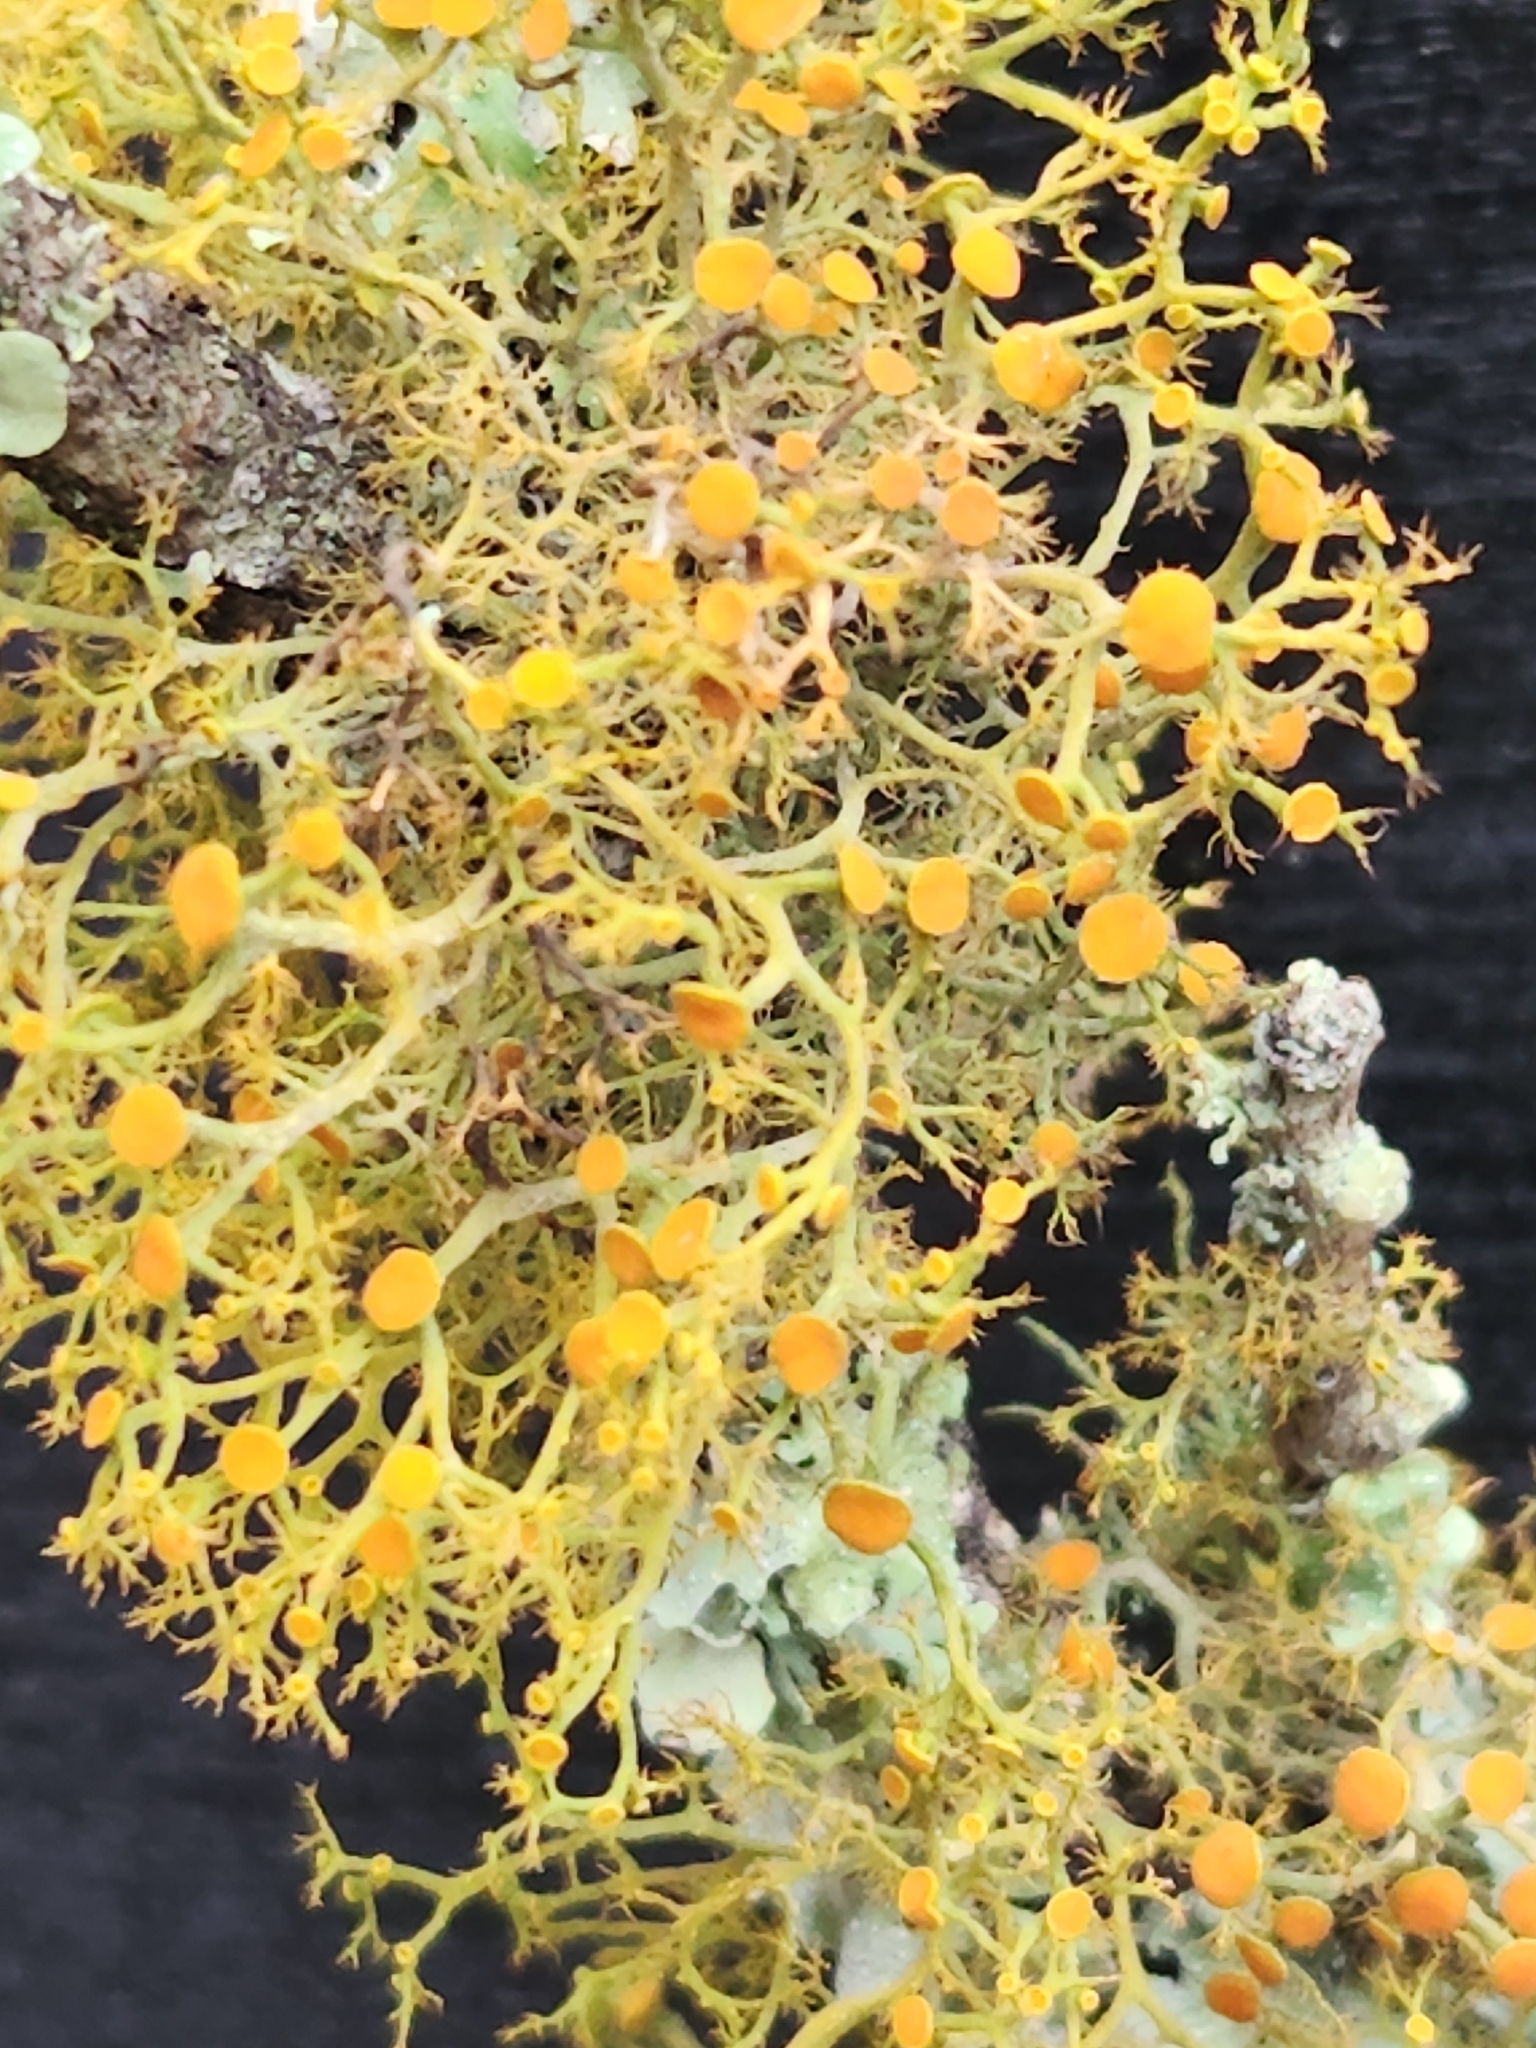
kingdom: Fungi
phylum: Ascomycota
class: Lecanoromycetes
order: Teloschistales
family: Teloschistaceae
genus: Teloschistes
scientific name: Teloschistes exilis
